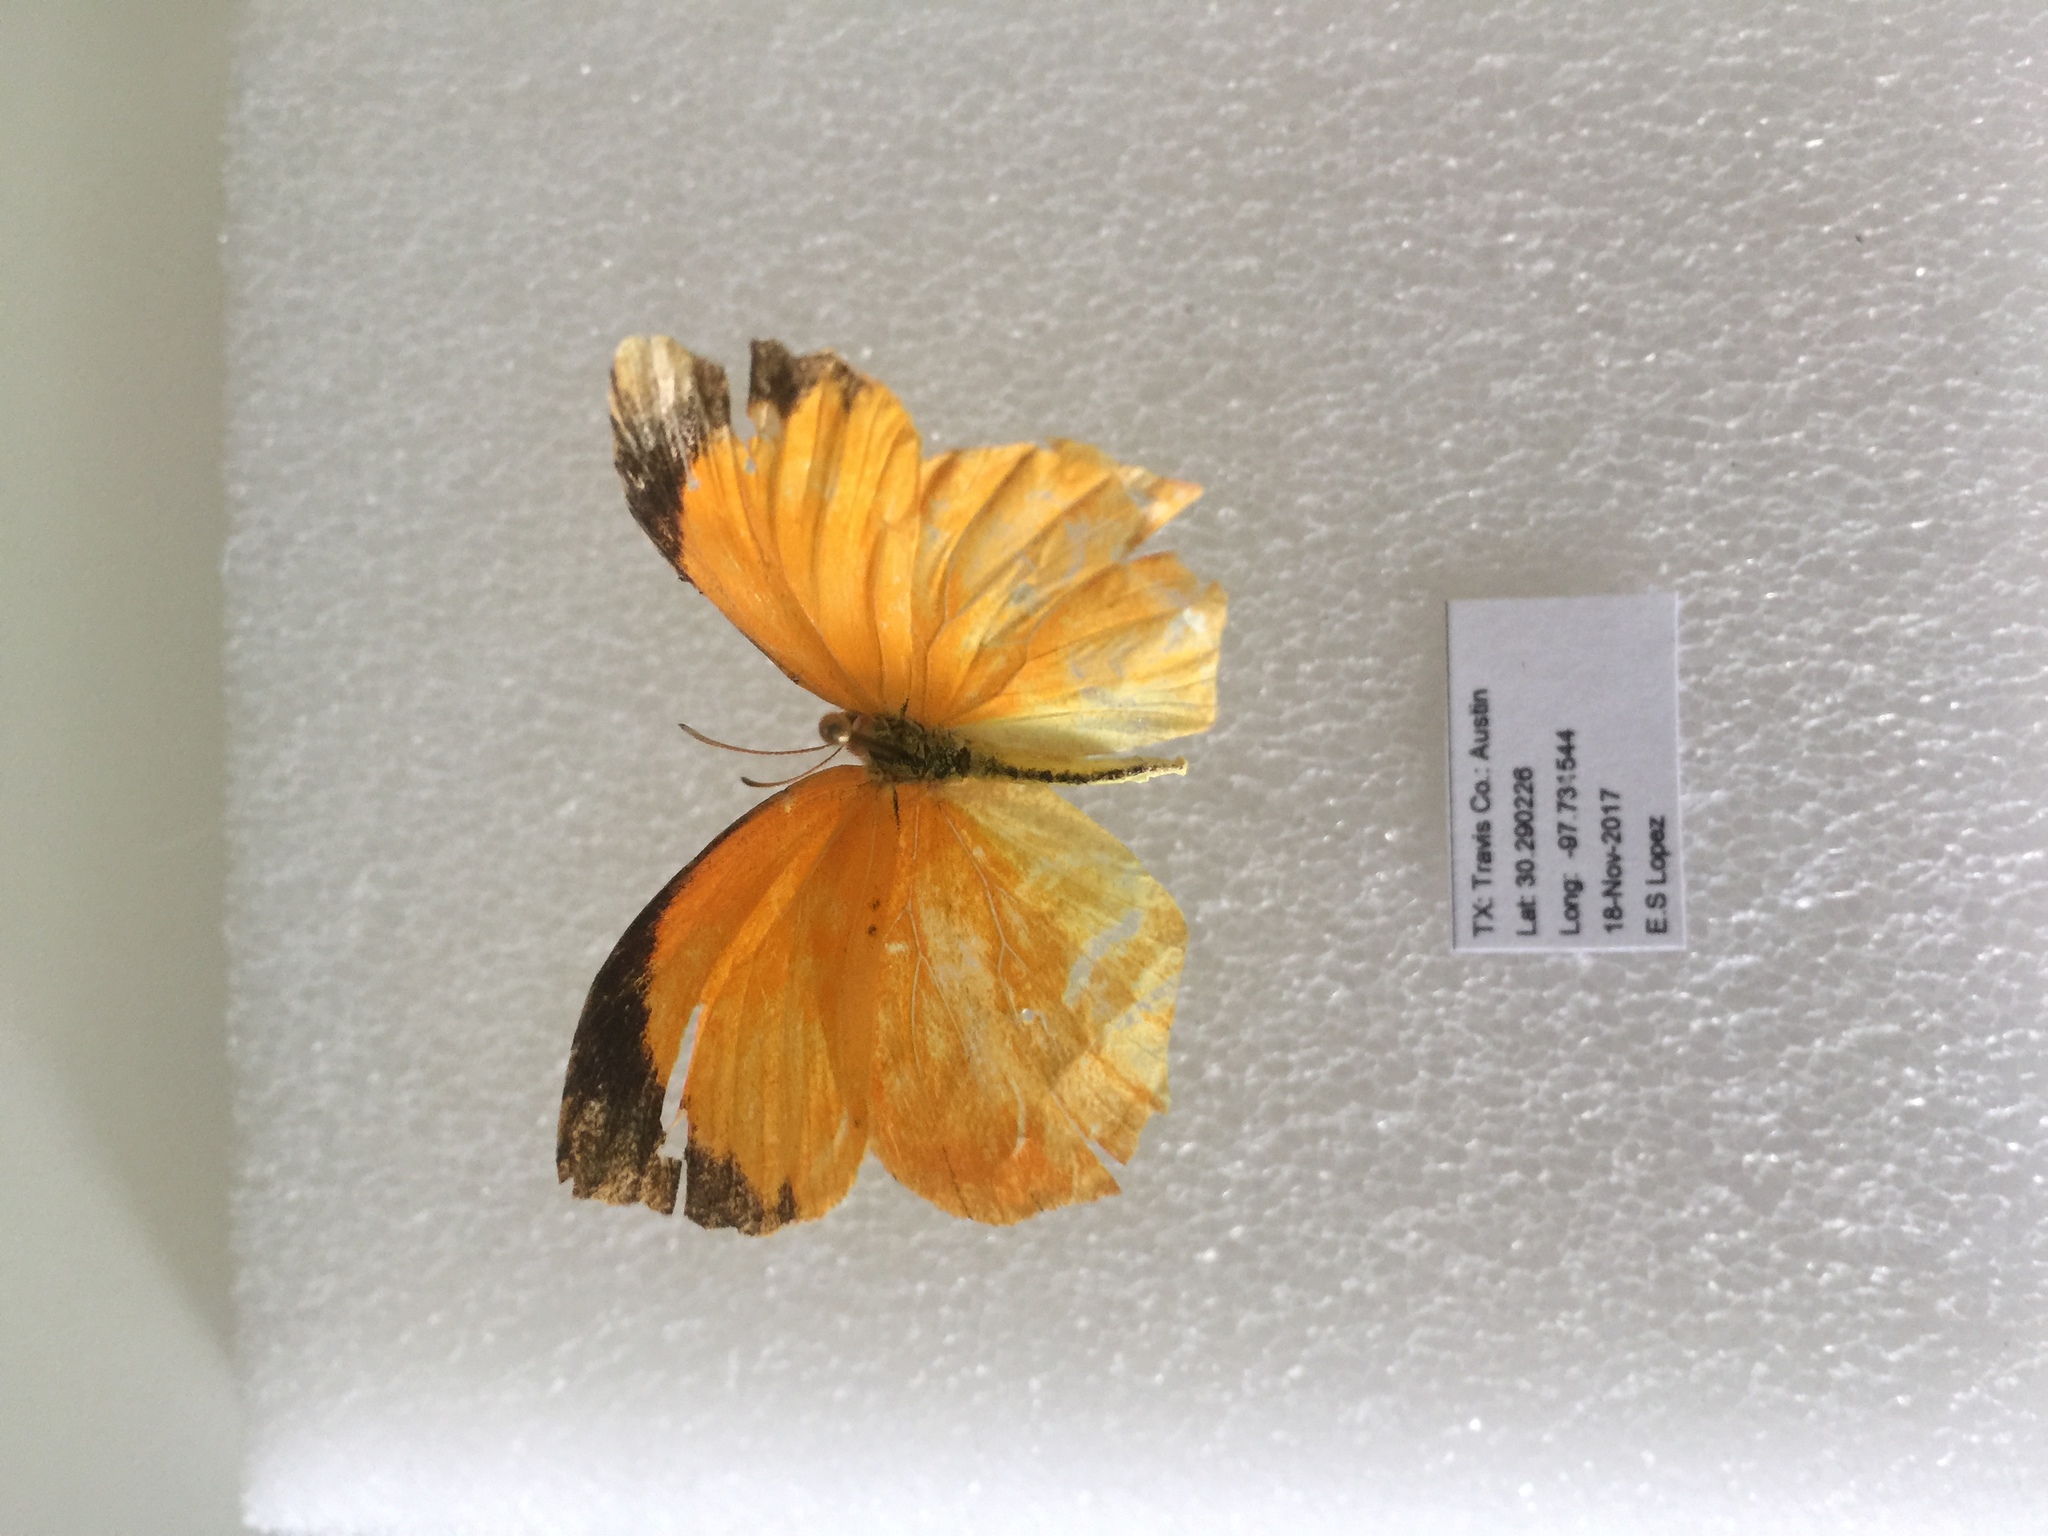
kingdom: Animalia
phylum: Arthropoda
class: Insecta
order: Lepidoptera
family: Pieridae
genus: Pyrisitia
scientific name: Pyrisitia proterpia
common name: Tailed orange
